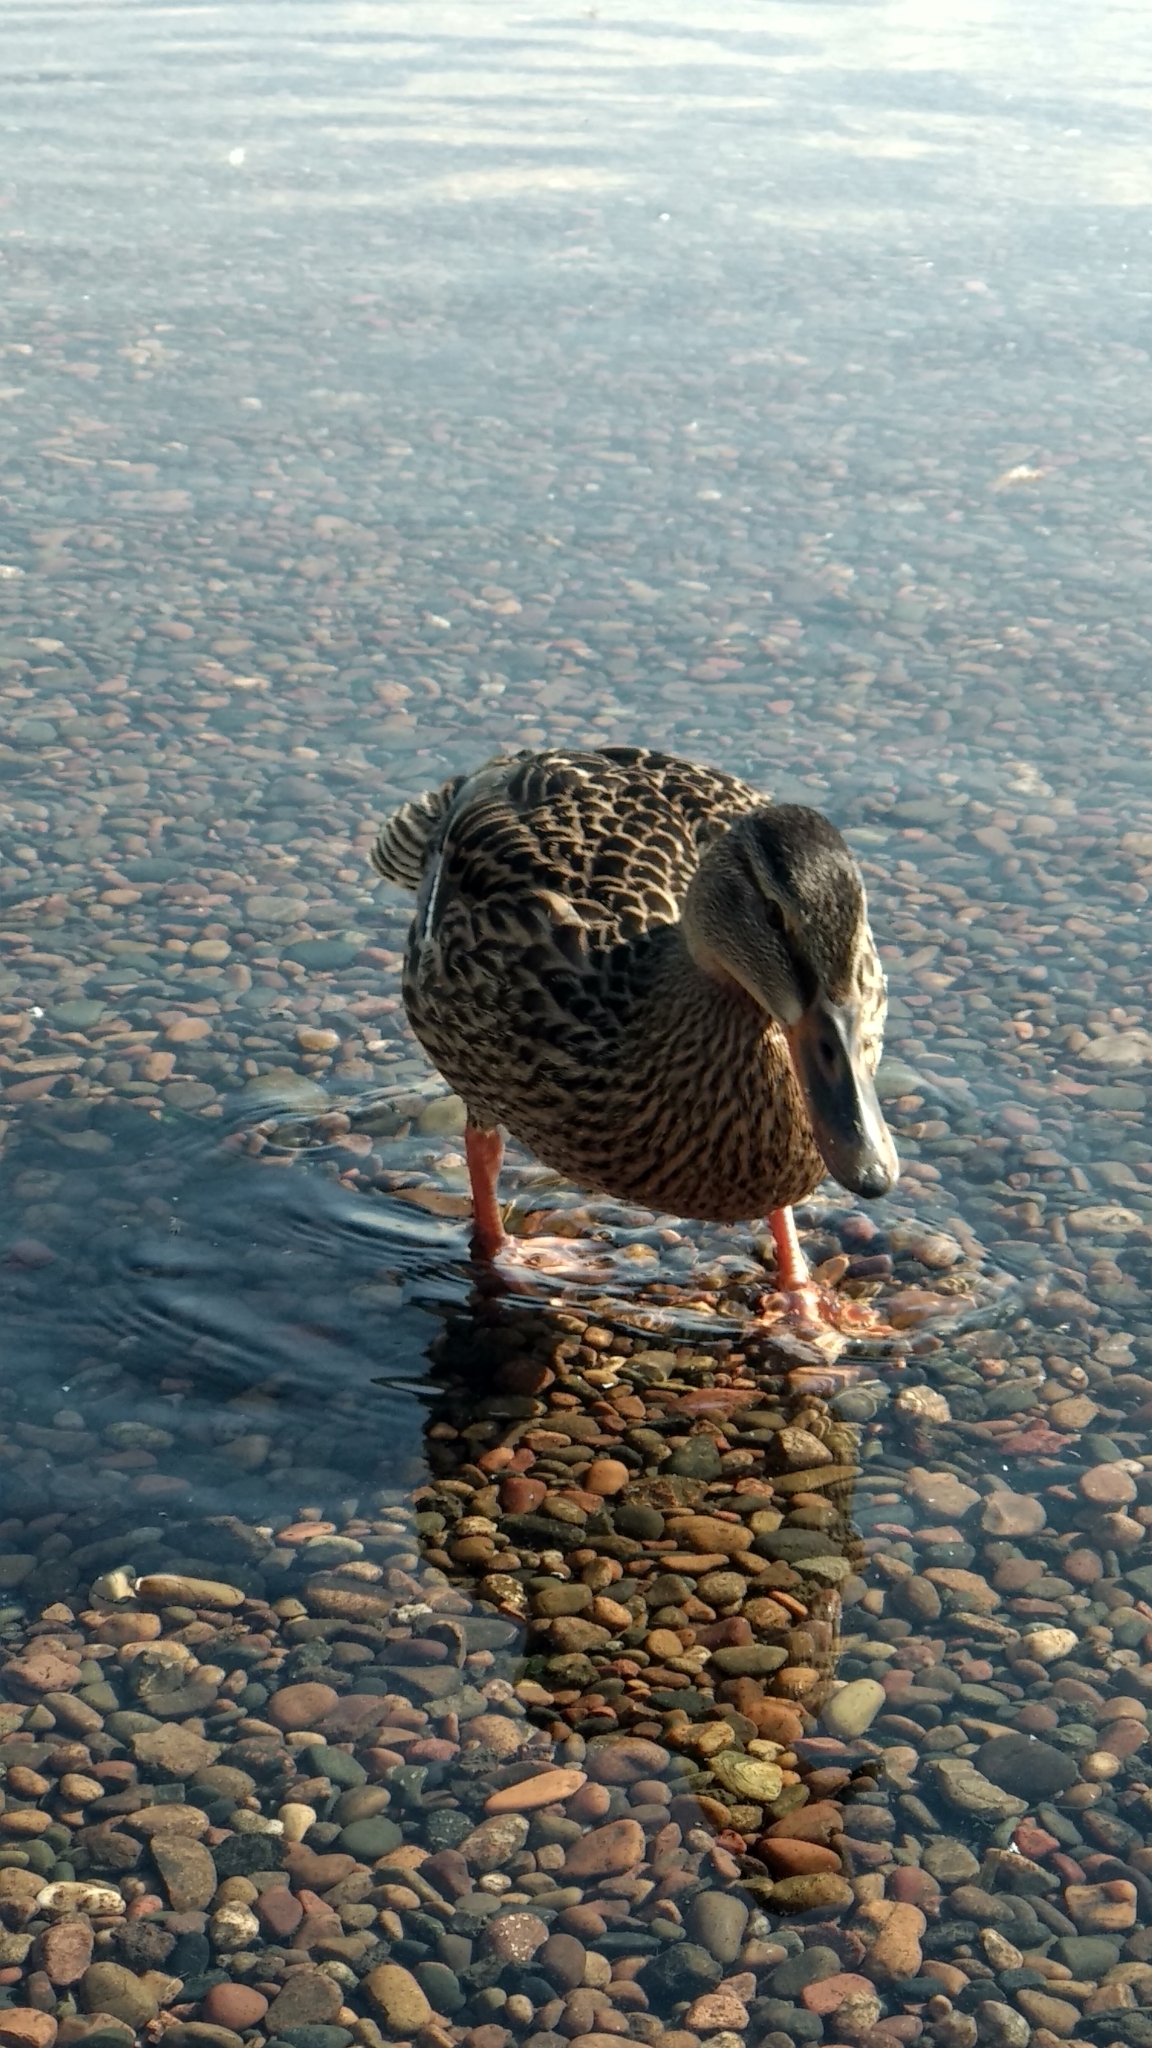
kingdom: Animalia
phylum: Chordata
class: Aves
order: Anseriformes
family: Anatidae
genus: Anas
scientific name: Anas platyrhynchos
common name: Mallard
